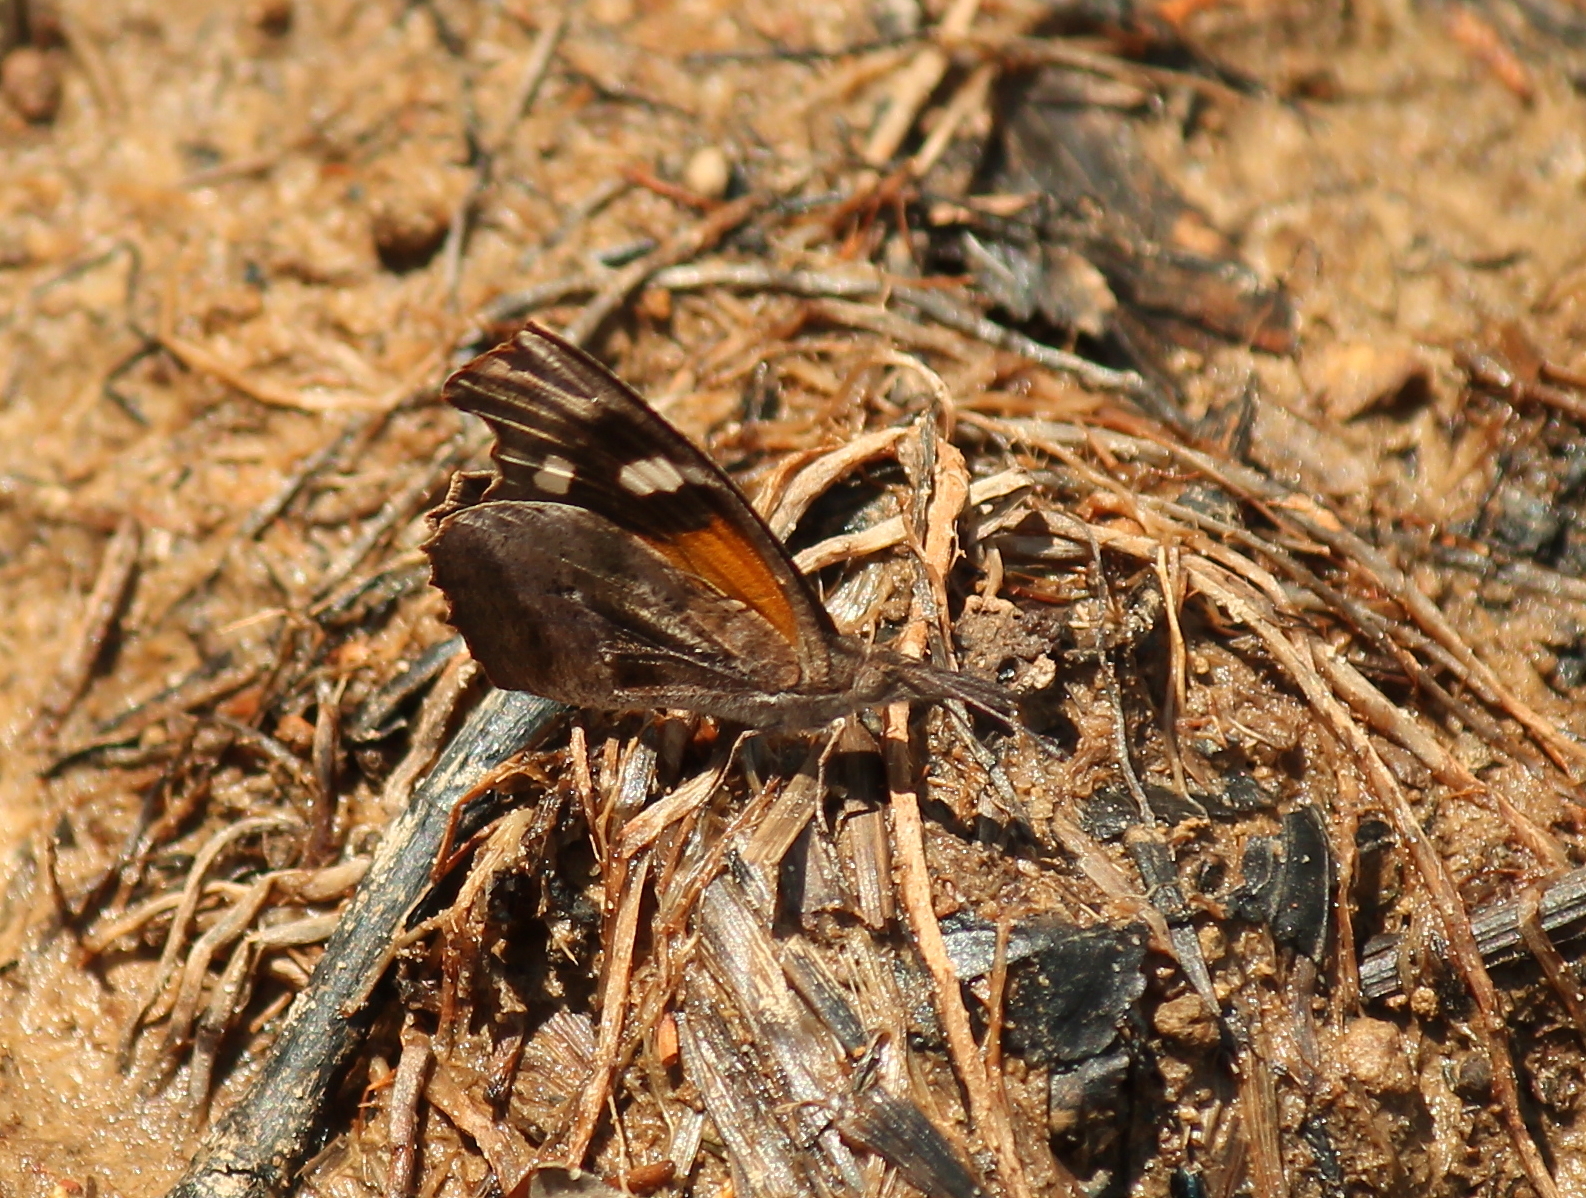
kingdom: Animalia
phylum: Arthropoda
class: Insecta
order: Lepidoptera
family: Nymphalidae
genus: Libytheana
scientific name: Libytheana carinenta
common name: American snout
